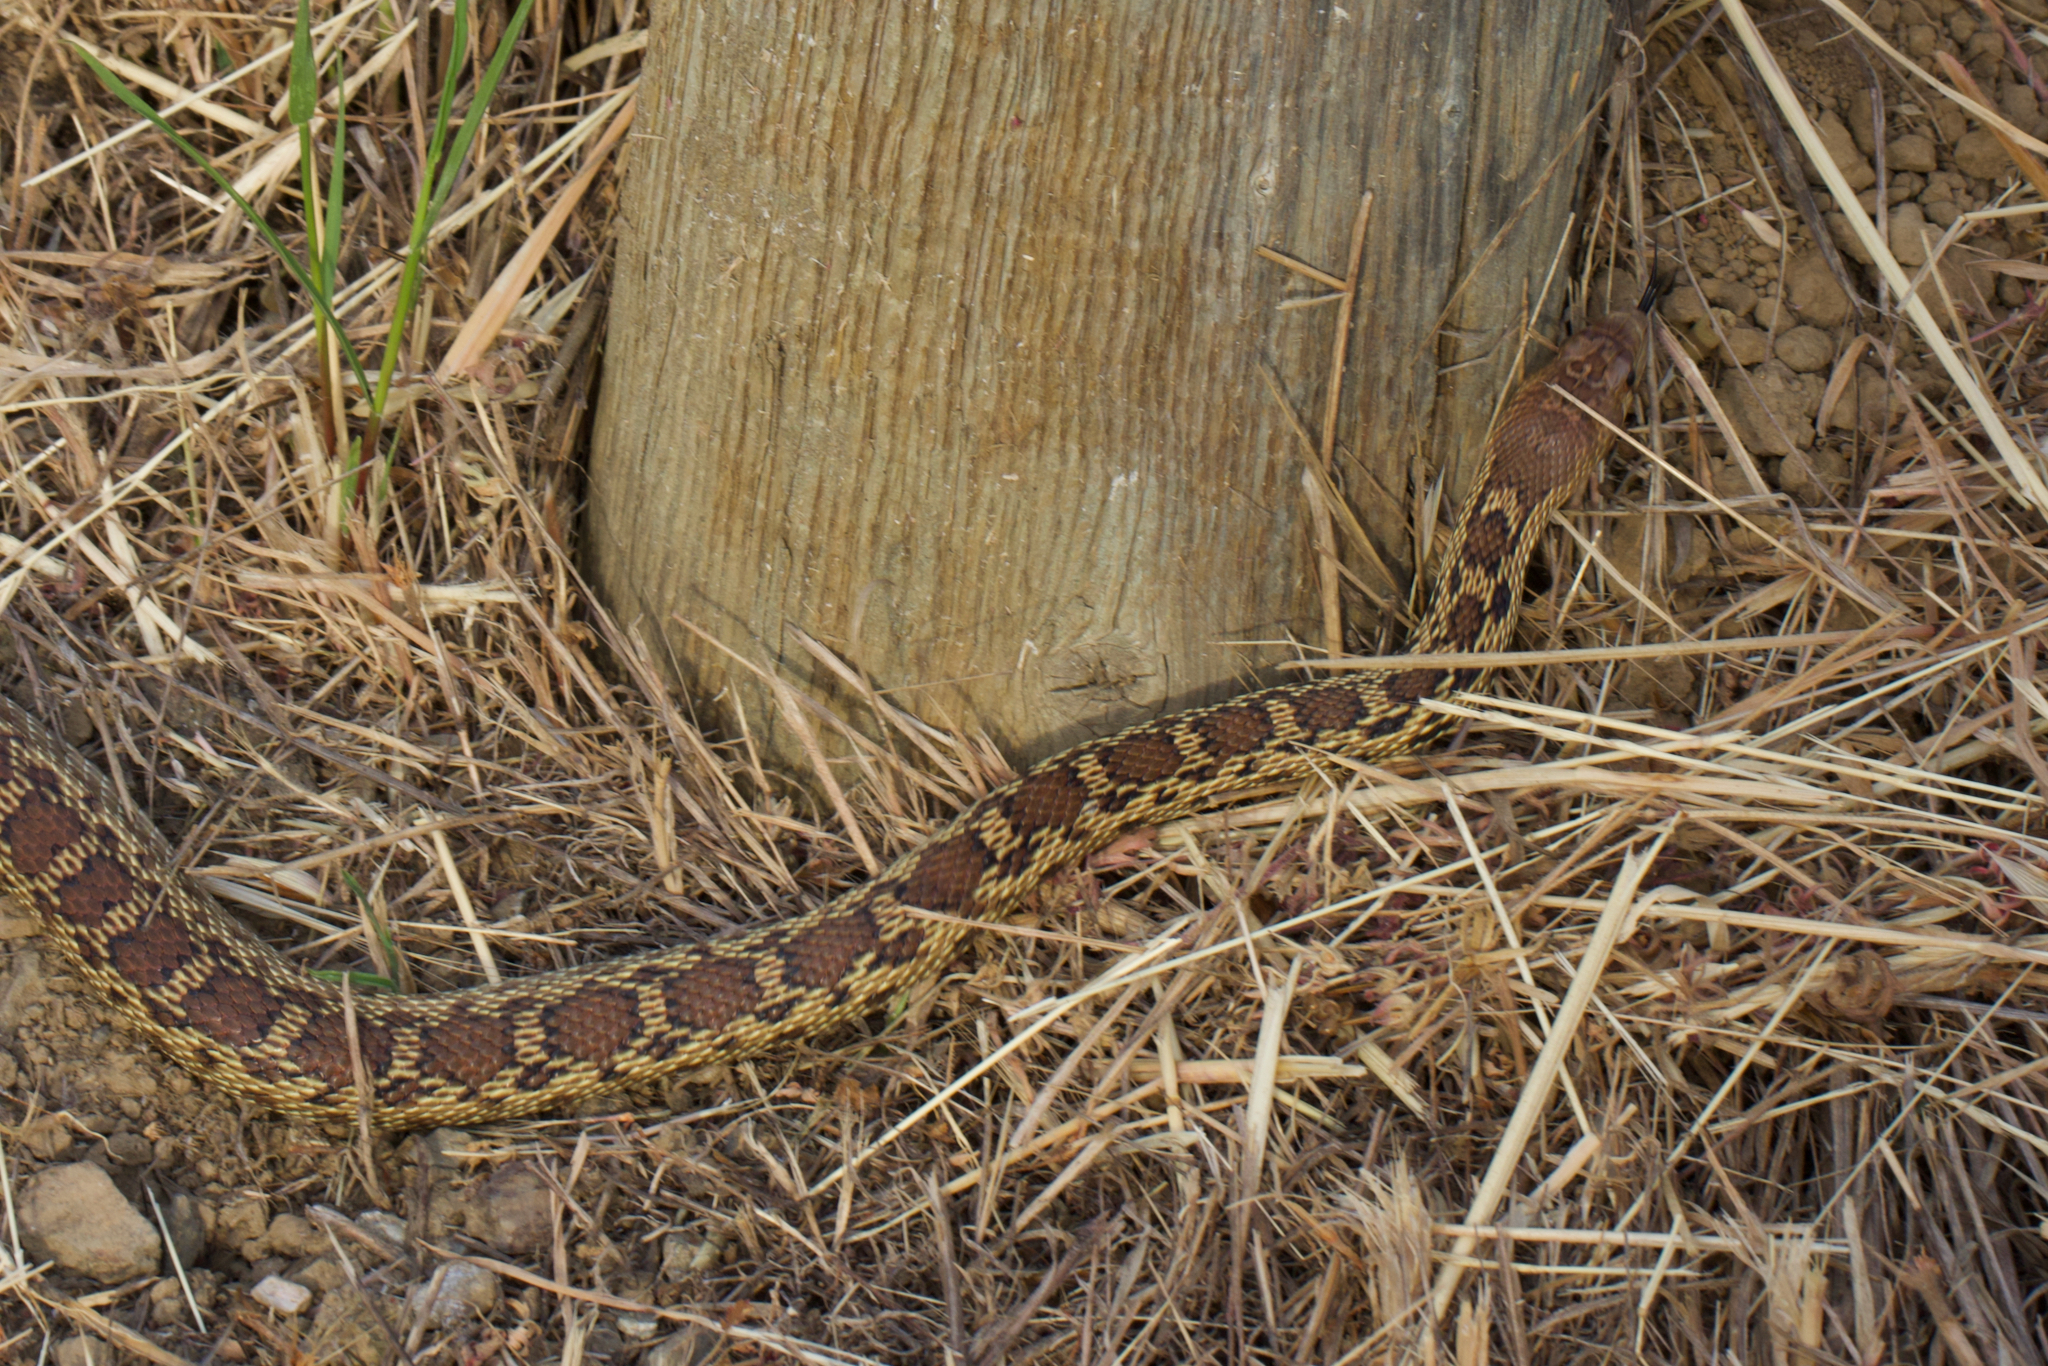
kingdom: Animalia
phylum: Chordata
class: Squamata
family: Colubridae
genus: Pituophis
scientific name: Pituophis catenifer
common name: Gopher snake
